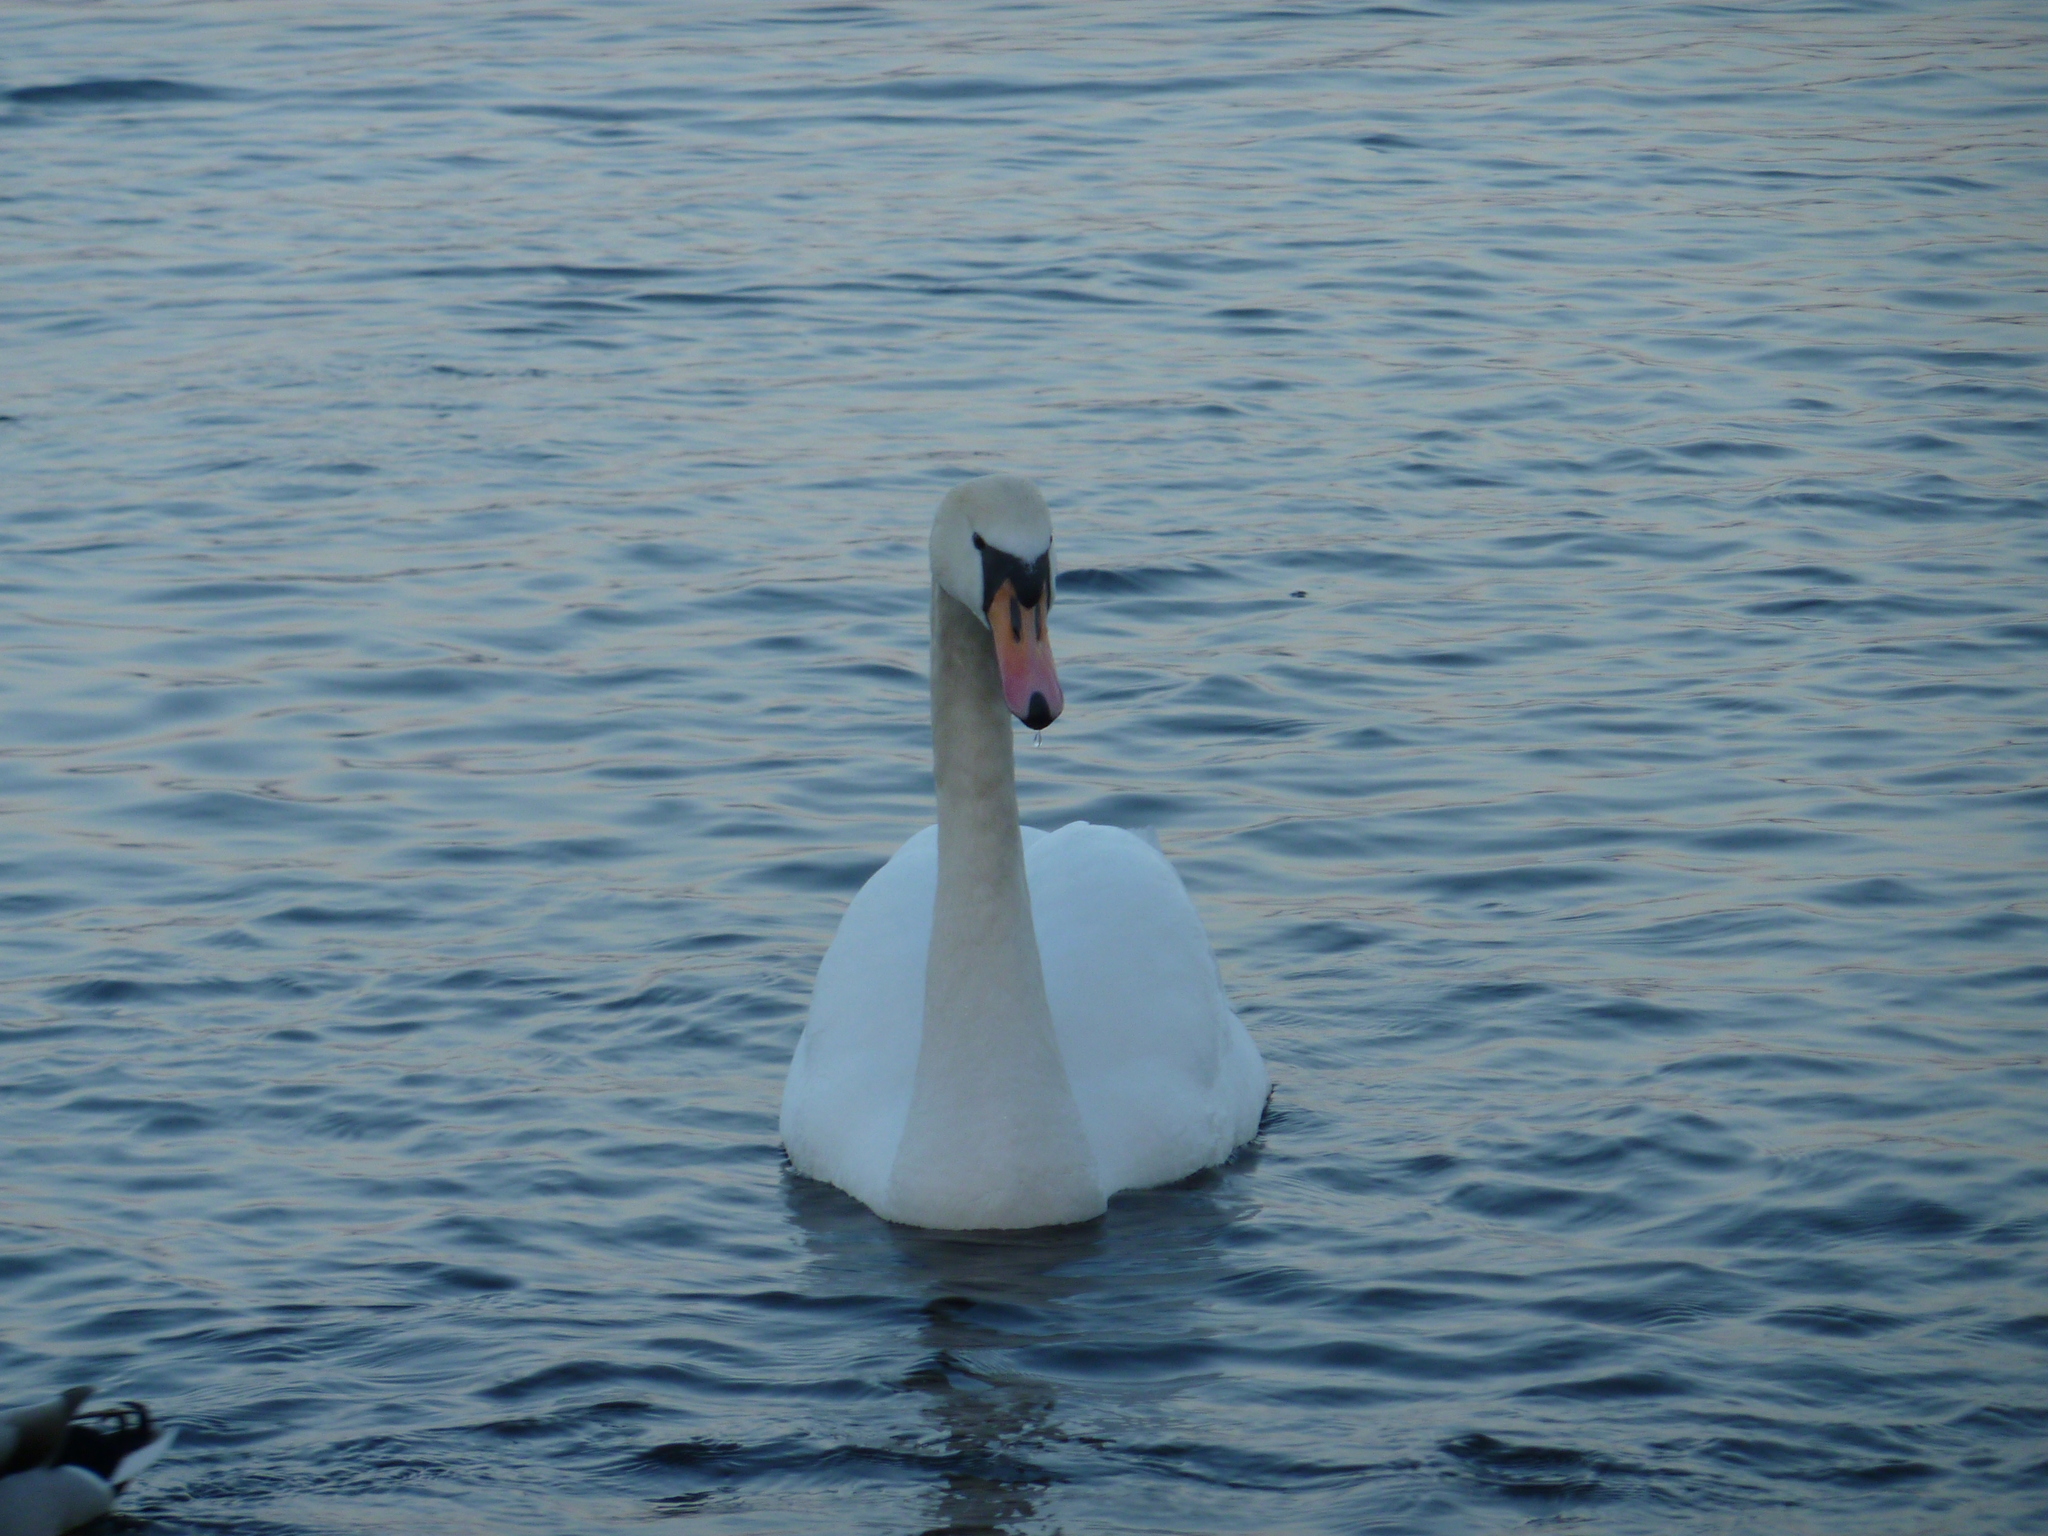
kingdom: Animalia
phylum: Chordata
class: Aves
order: Anseriformes
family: Anatidae
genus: Cygnus
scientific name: Cygnus olor
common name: Mute swan
